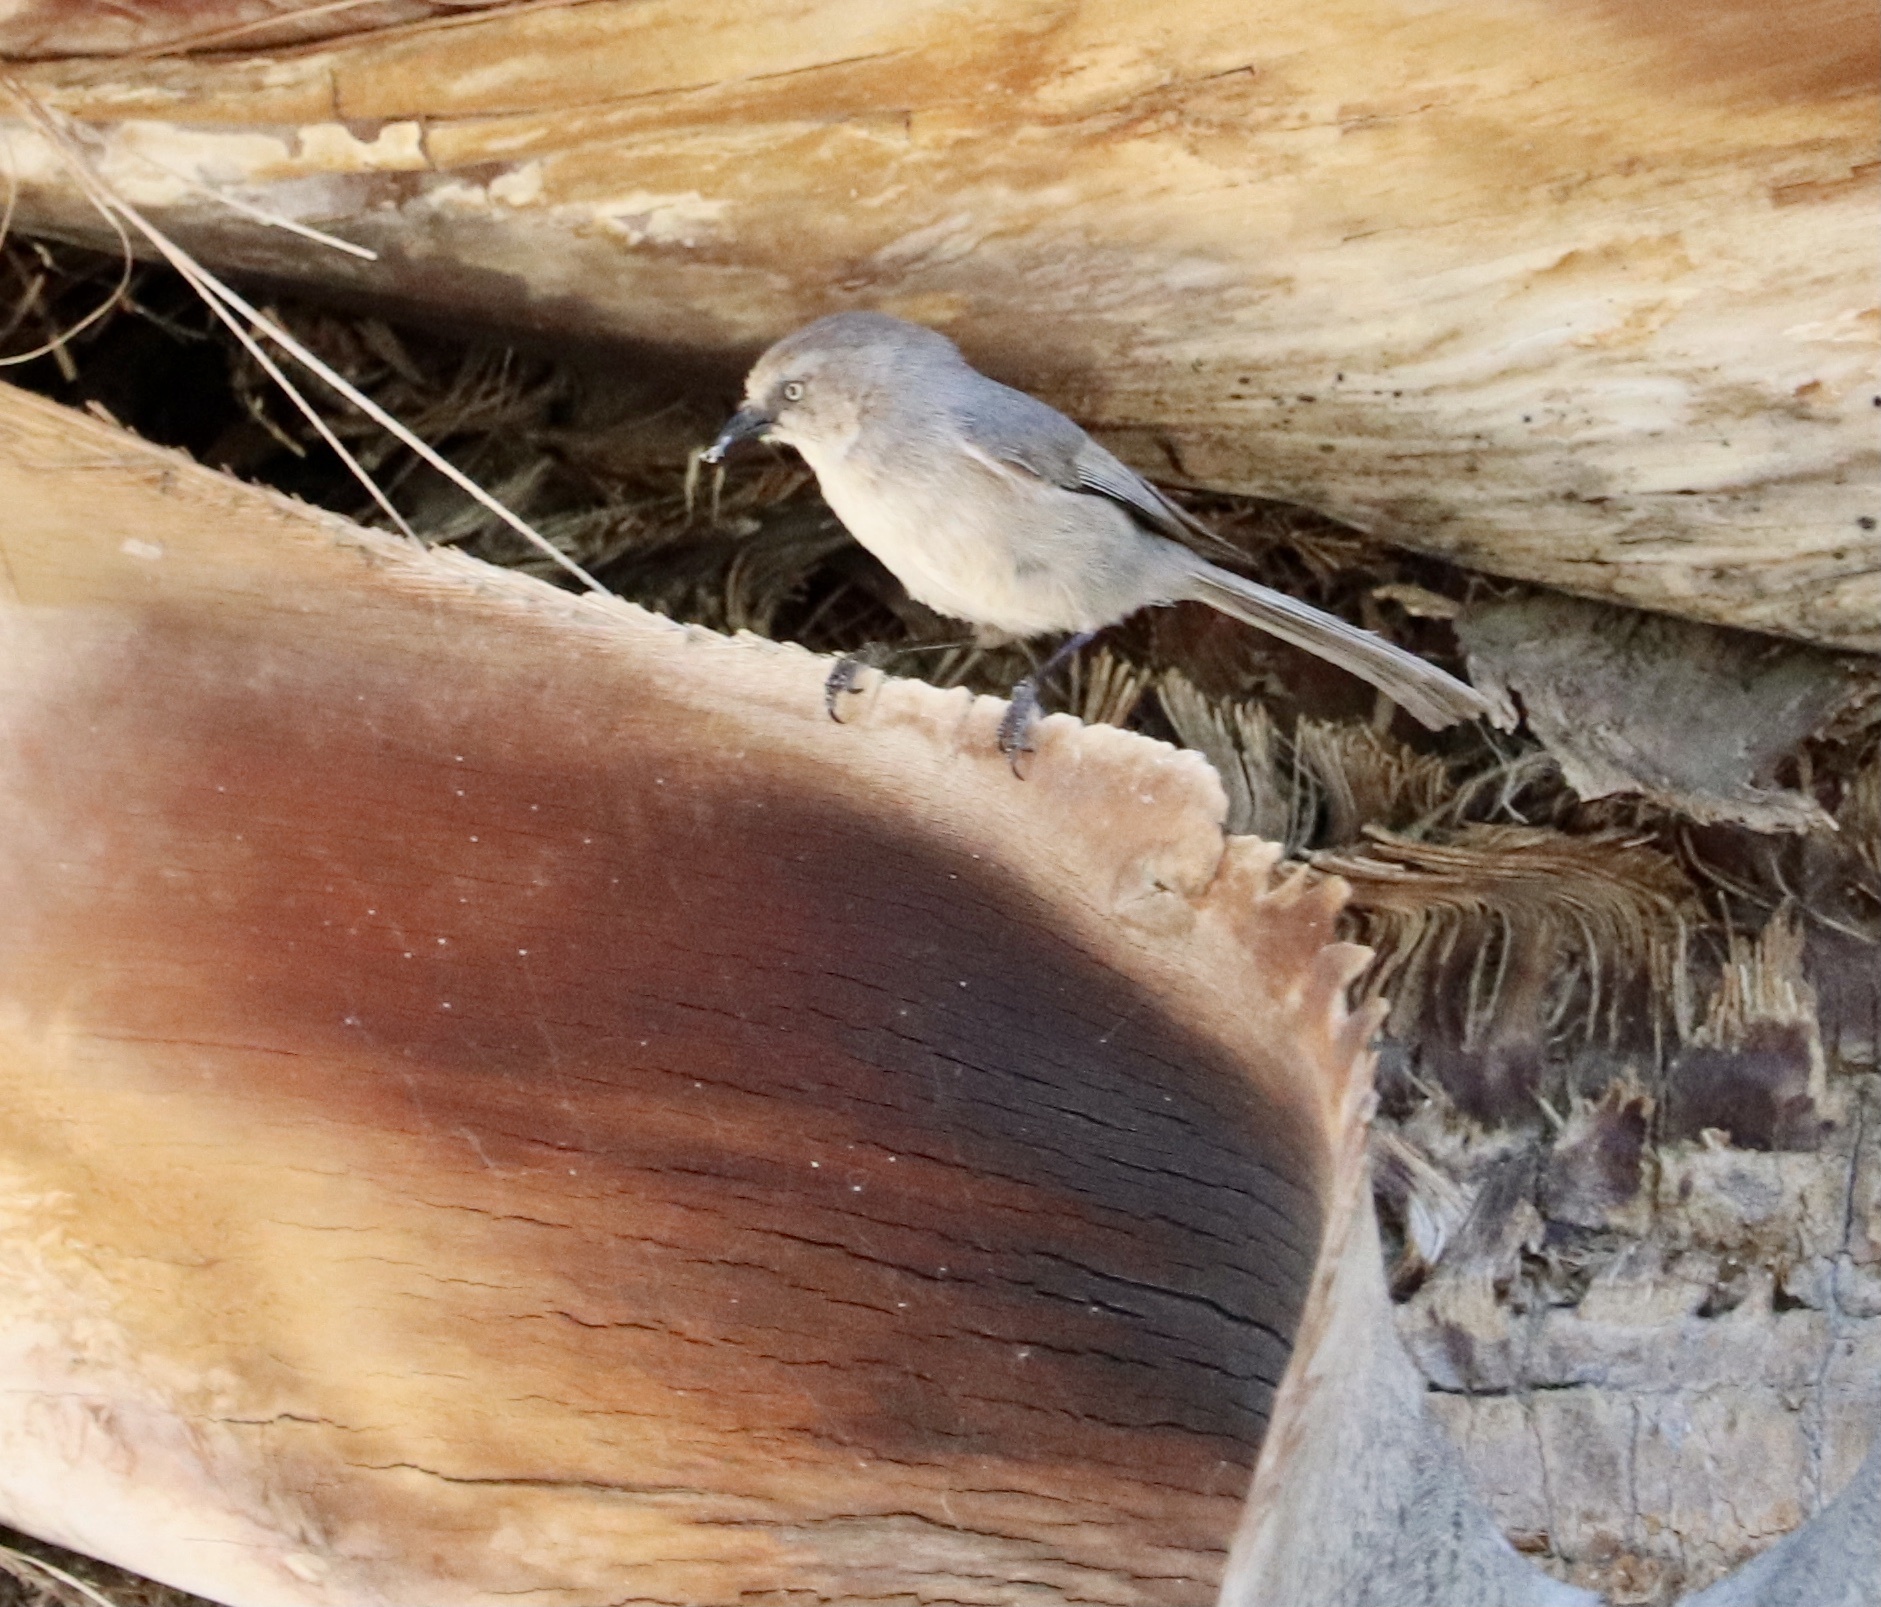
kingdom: Animalia
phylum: Chordata
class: Aves
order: Passeriformes
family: Aegithalidae
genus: Psaltriparus
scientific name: Psaltriparus minimus
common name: American bushtit
